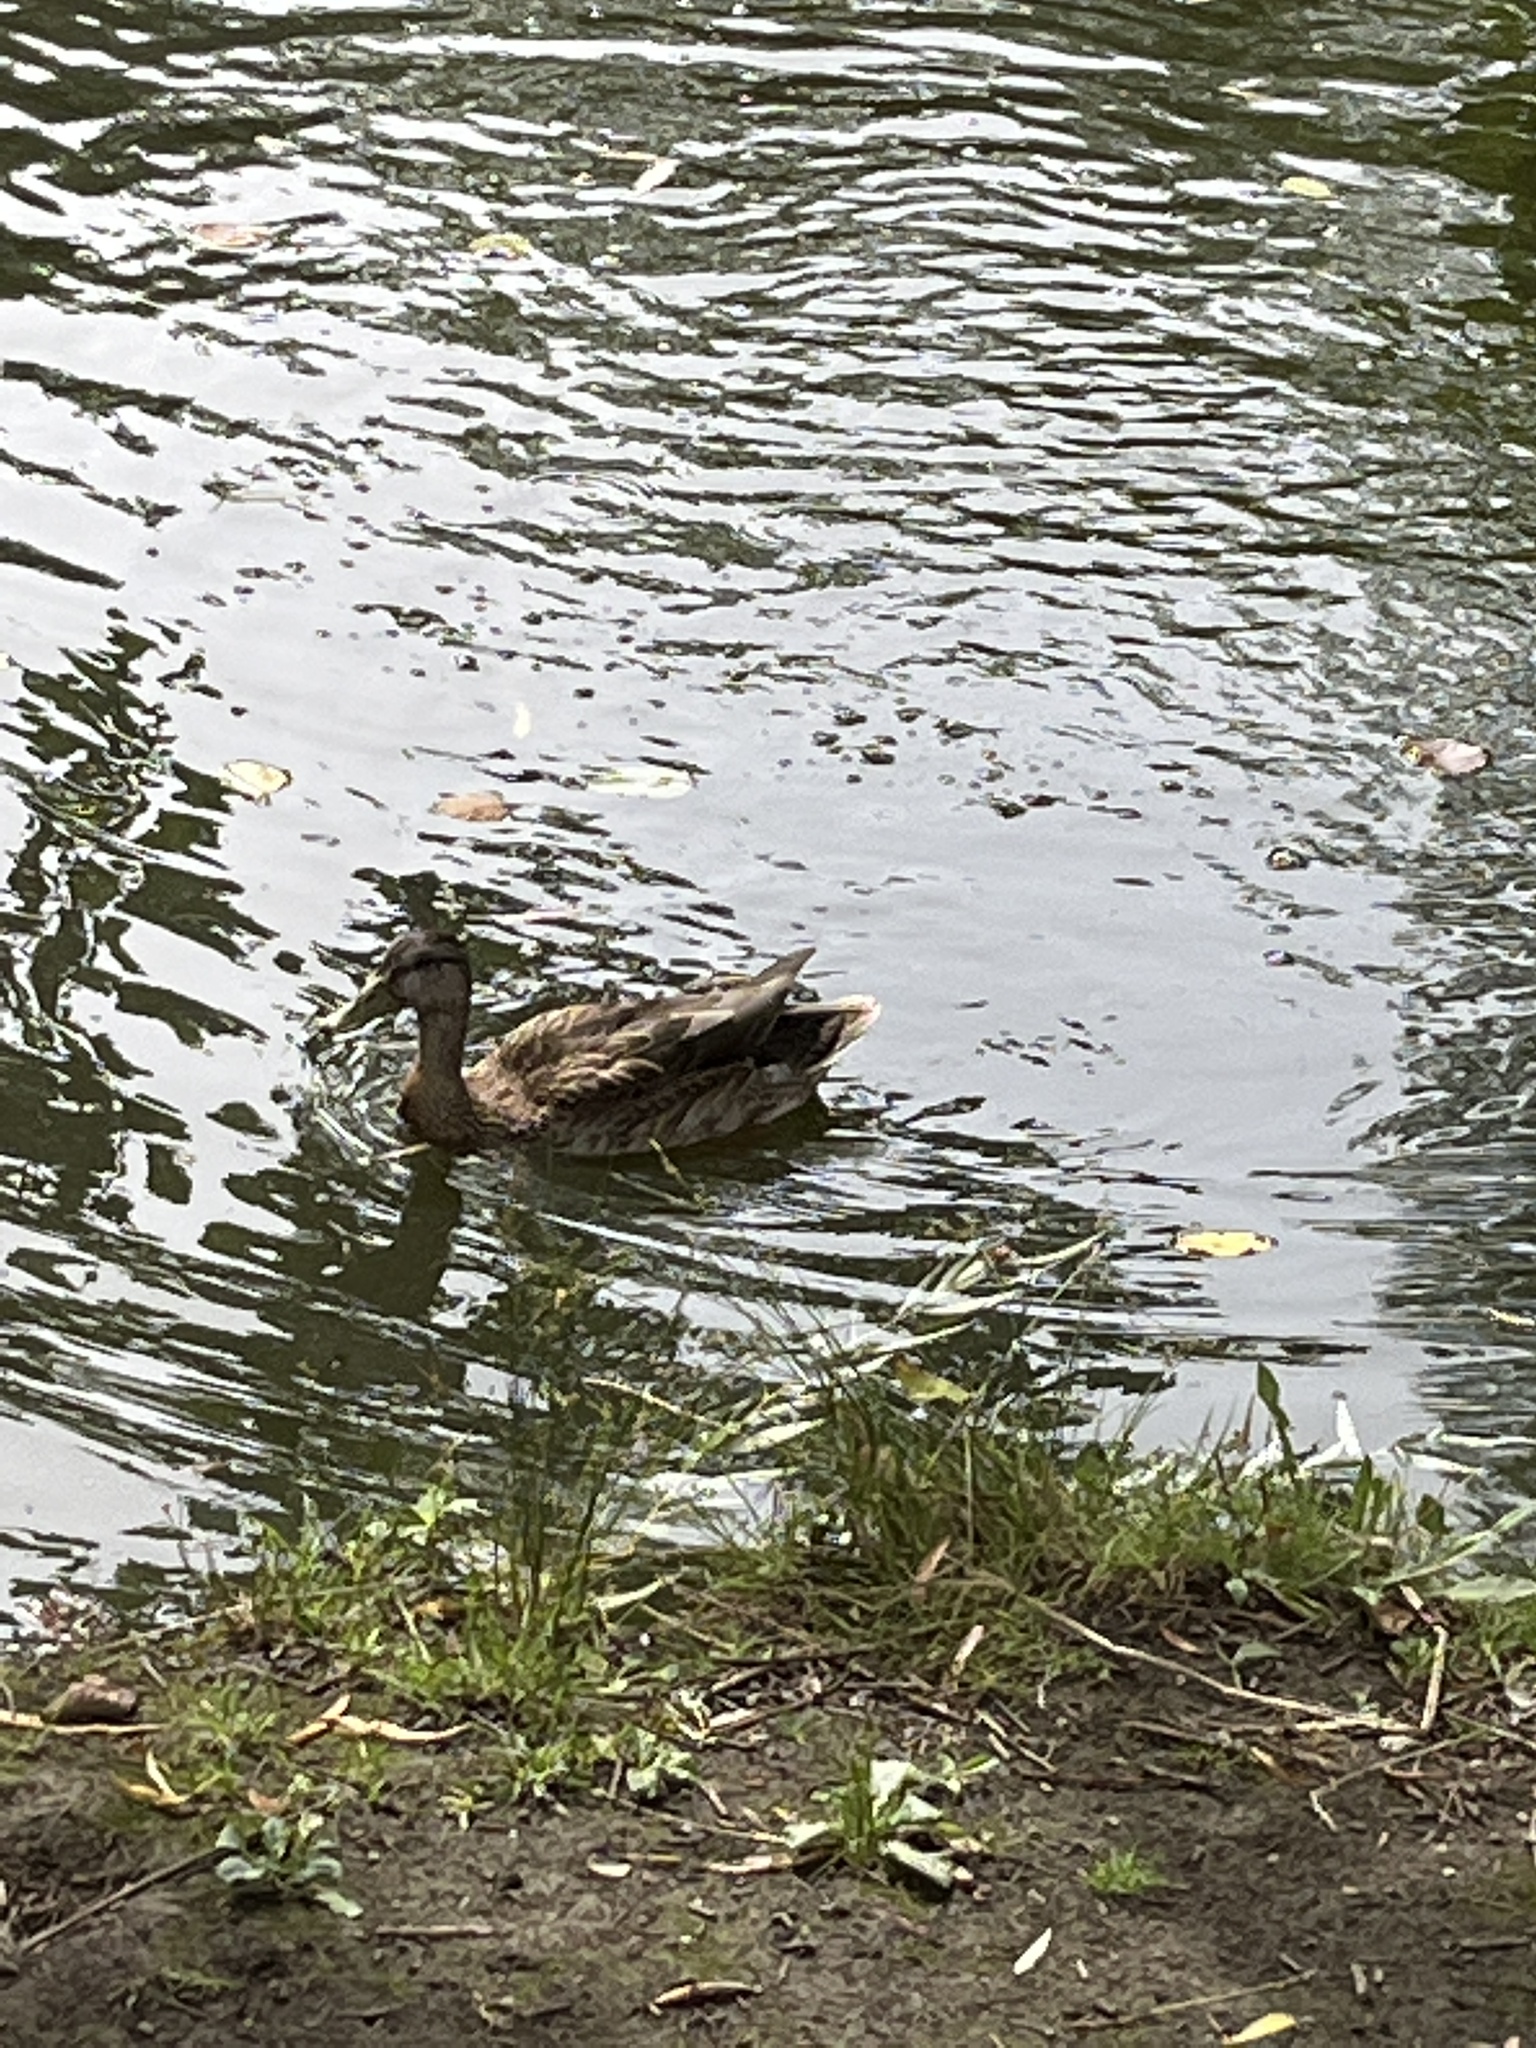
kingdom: Animalia
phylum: Chordata
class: Aves
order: Anseriformes
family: Anatidae
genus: Anas
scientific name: Anas platyrhynchos
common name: Mallard
